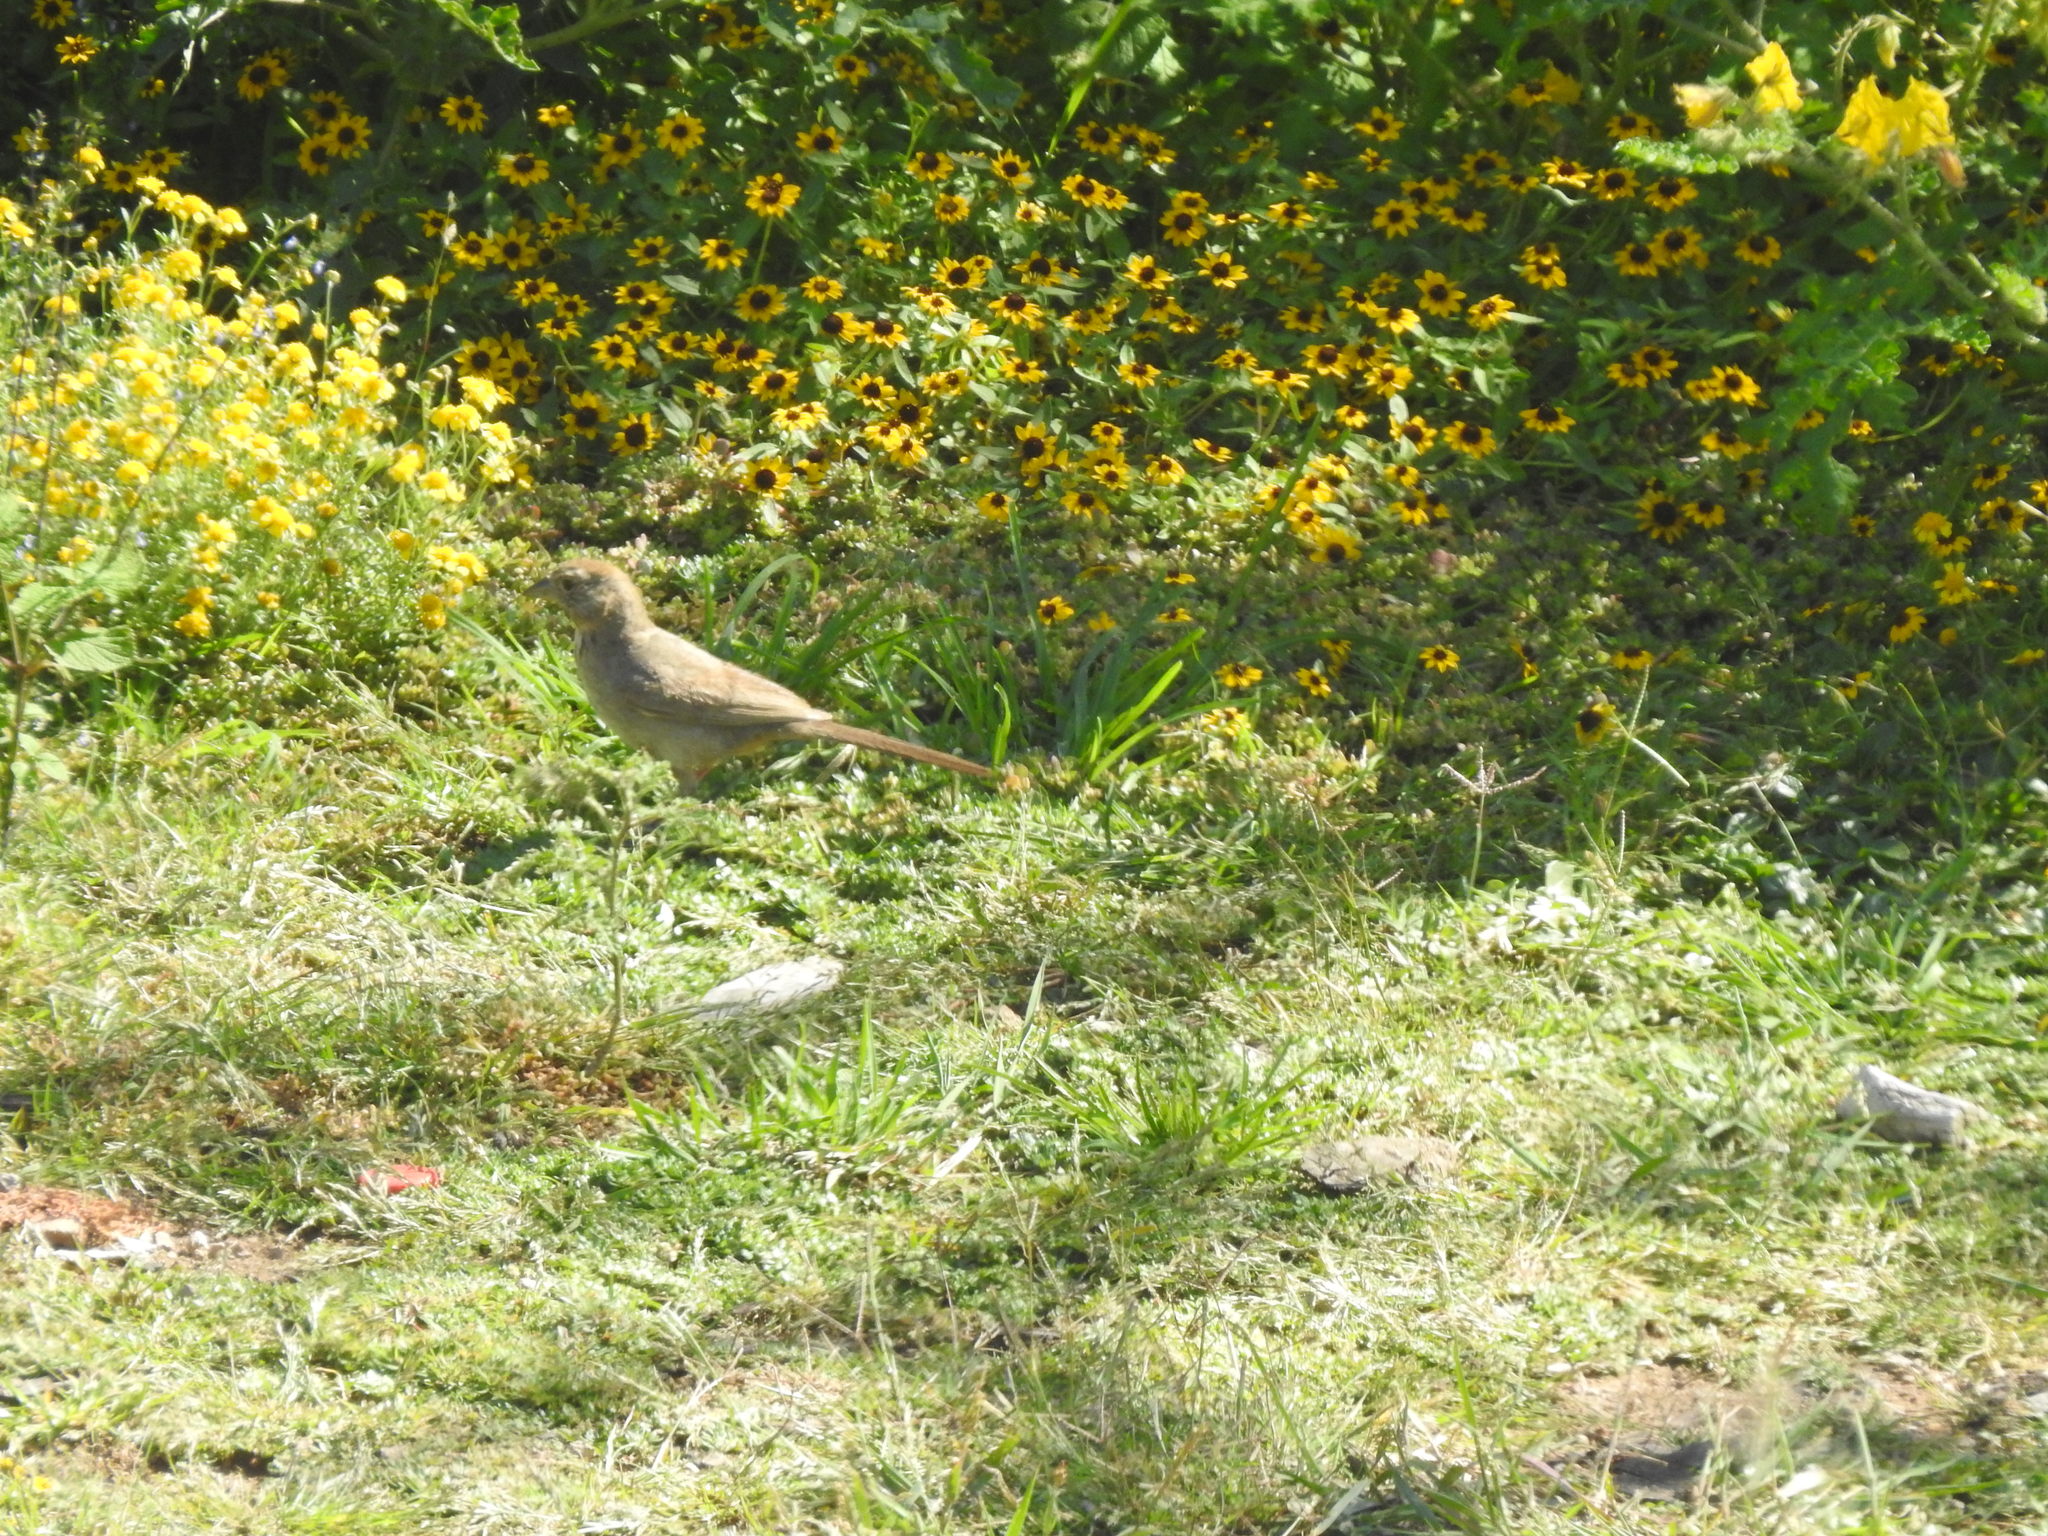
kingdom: Animalia
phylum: Chordata
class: Aves
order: Passeriformes
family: Passerellidae
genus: Melozone
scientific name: Melozone fusca
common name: Canyon towhee
